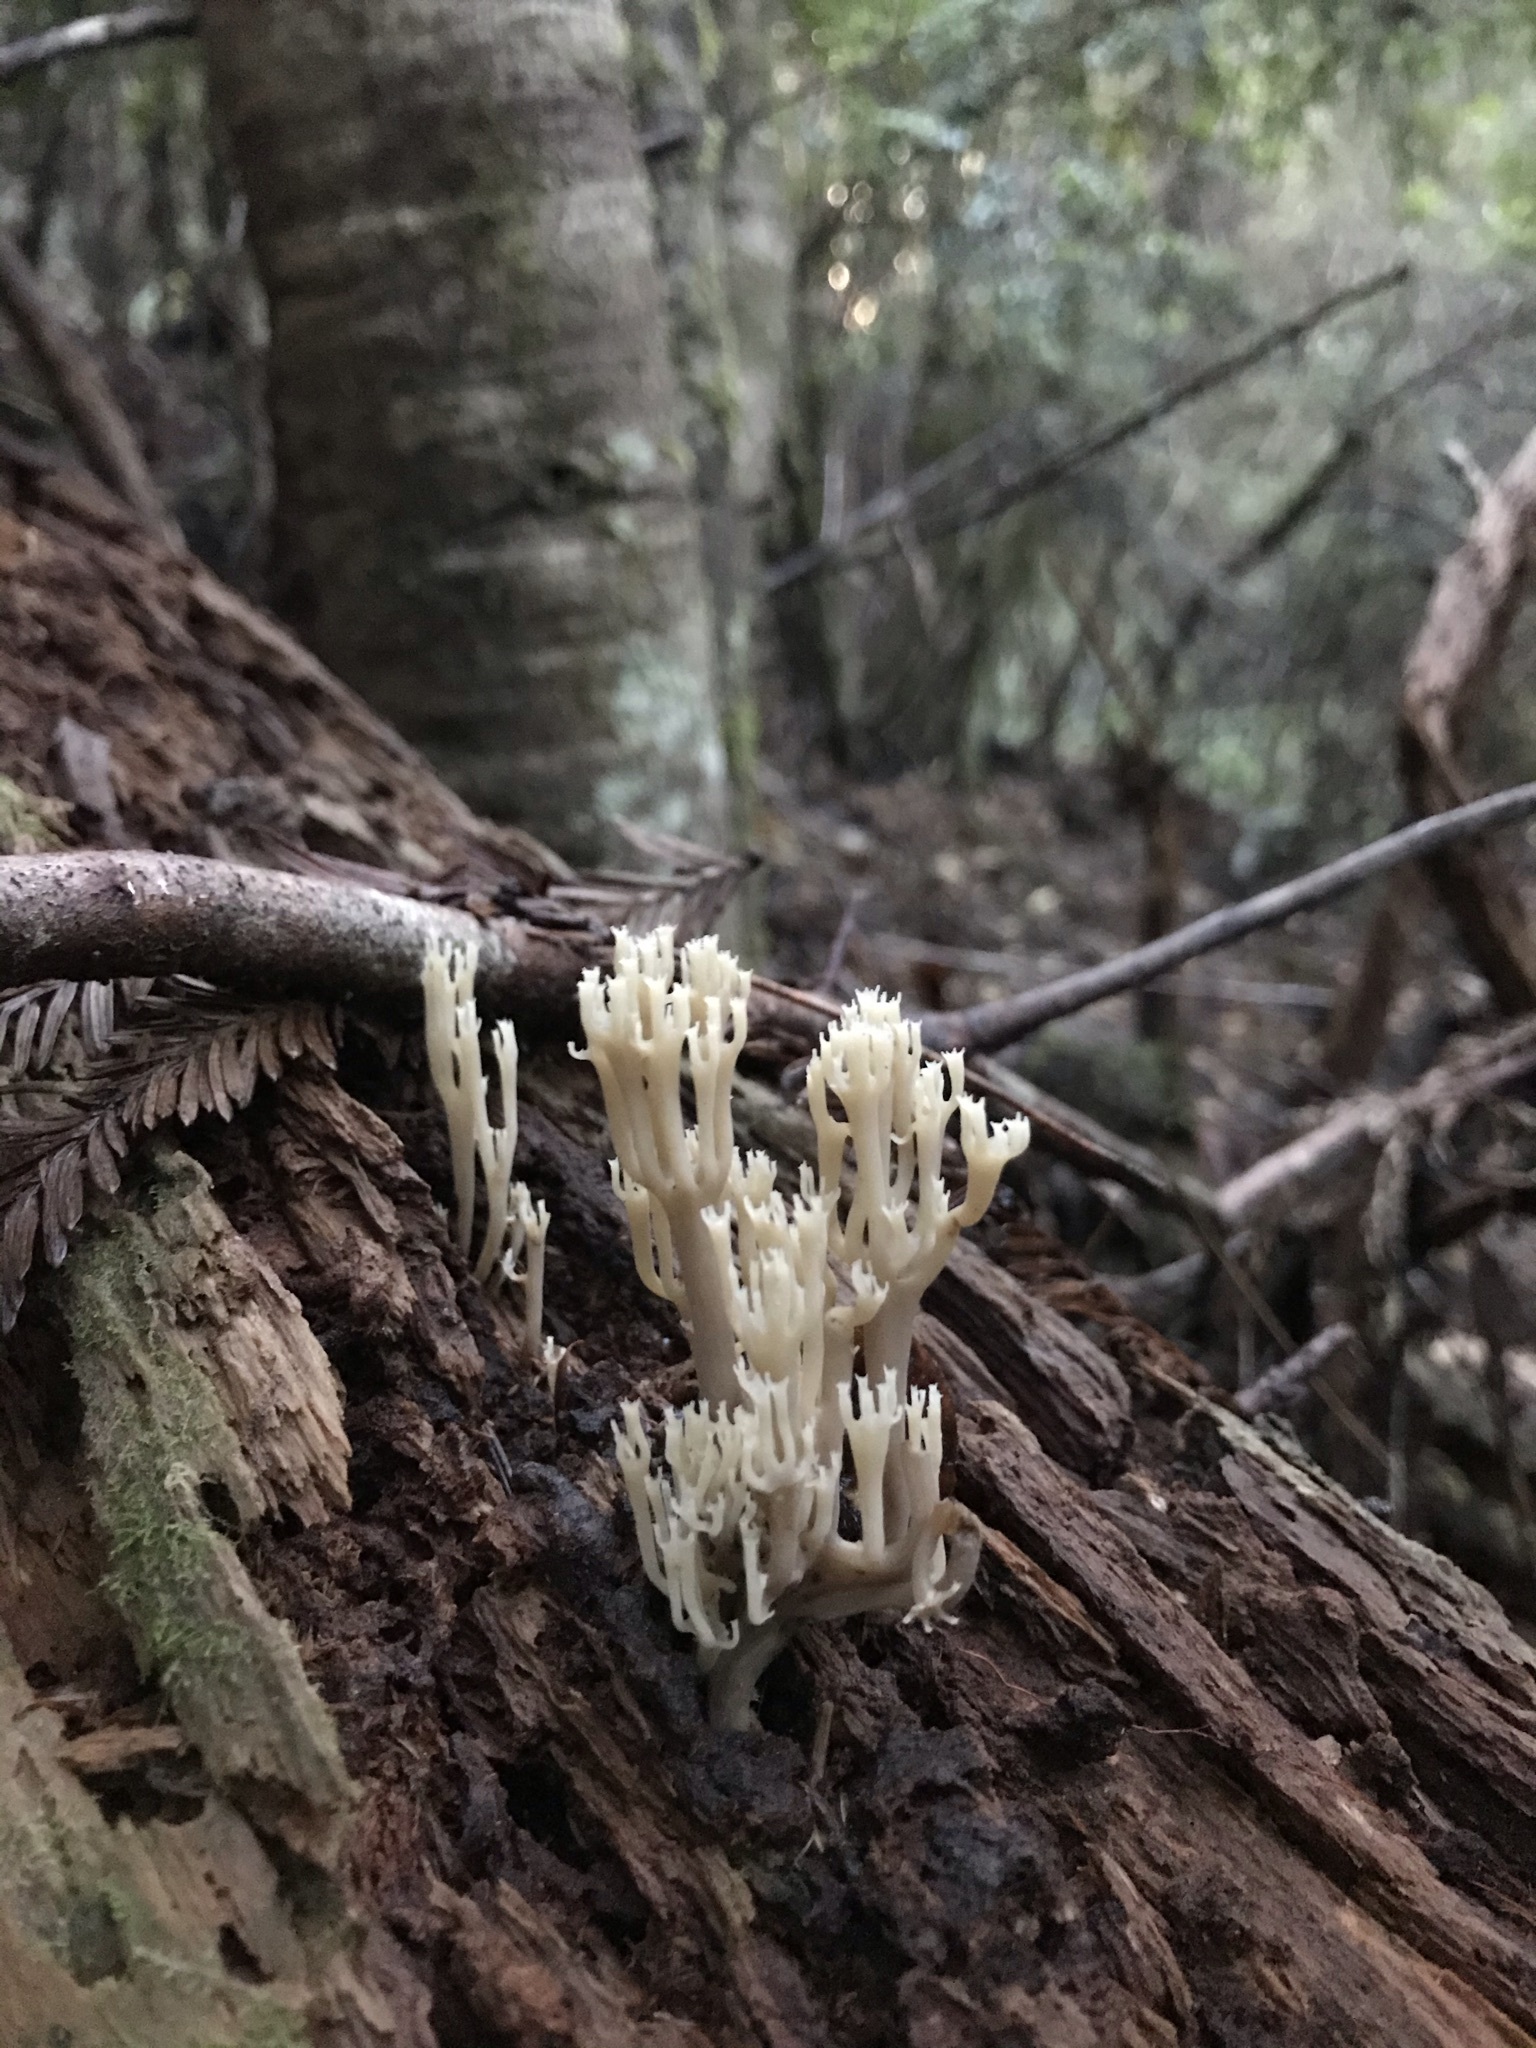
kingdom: Fungi
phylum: Basidiomycota
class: Agaricomycetes
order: Russulales
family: Auriscalpiaceae
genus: Artomyces
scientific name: Artomyces piperatus
